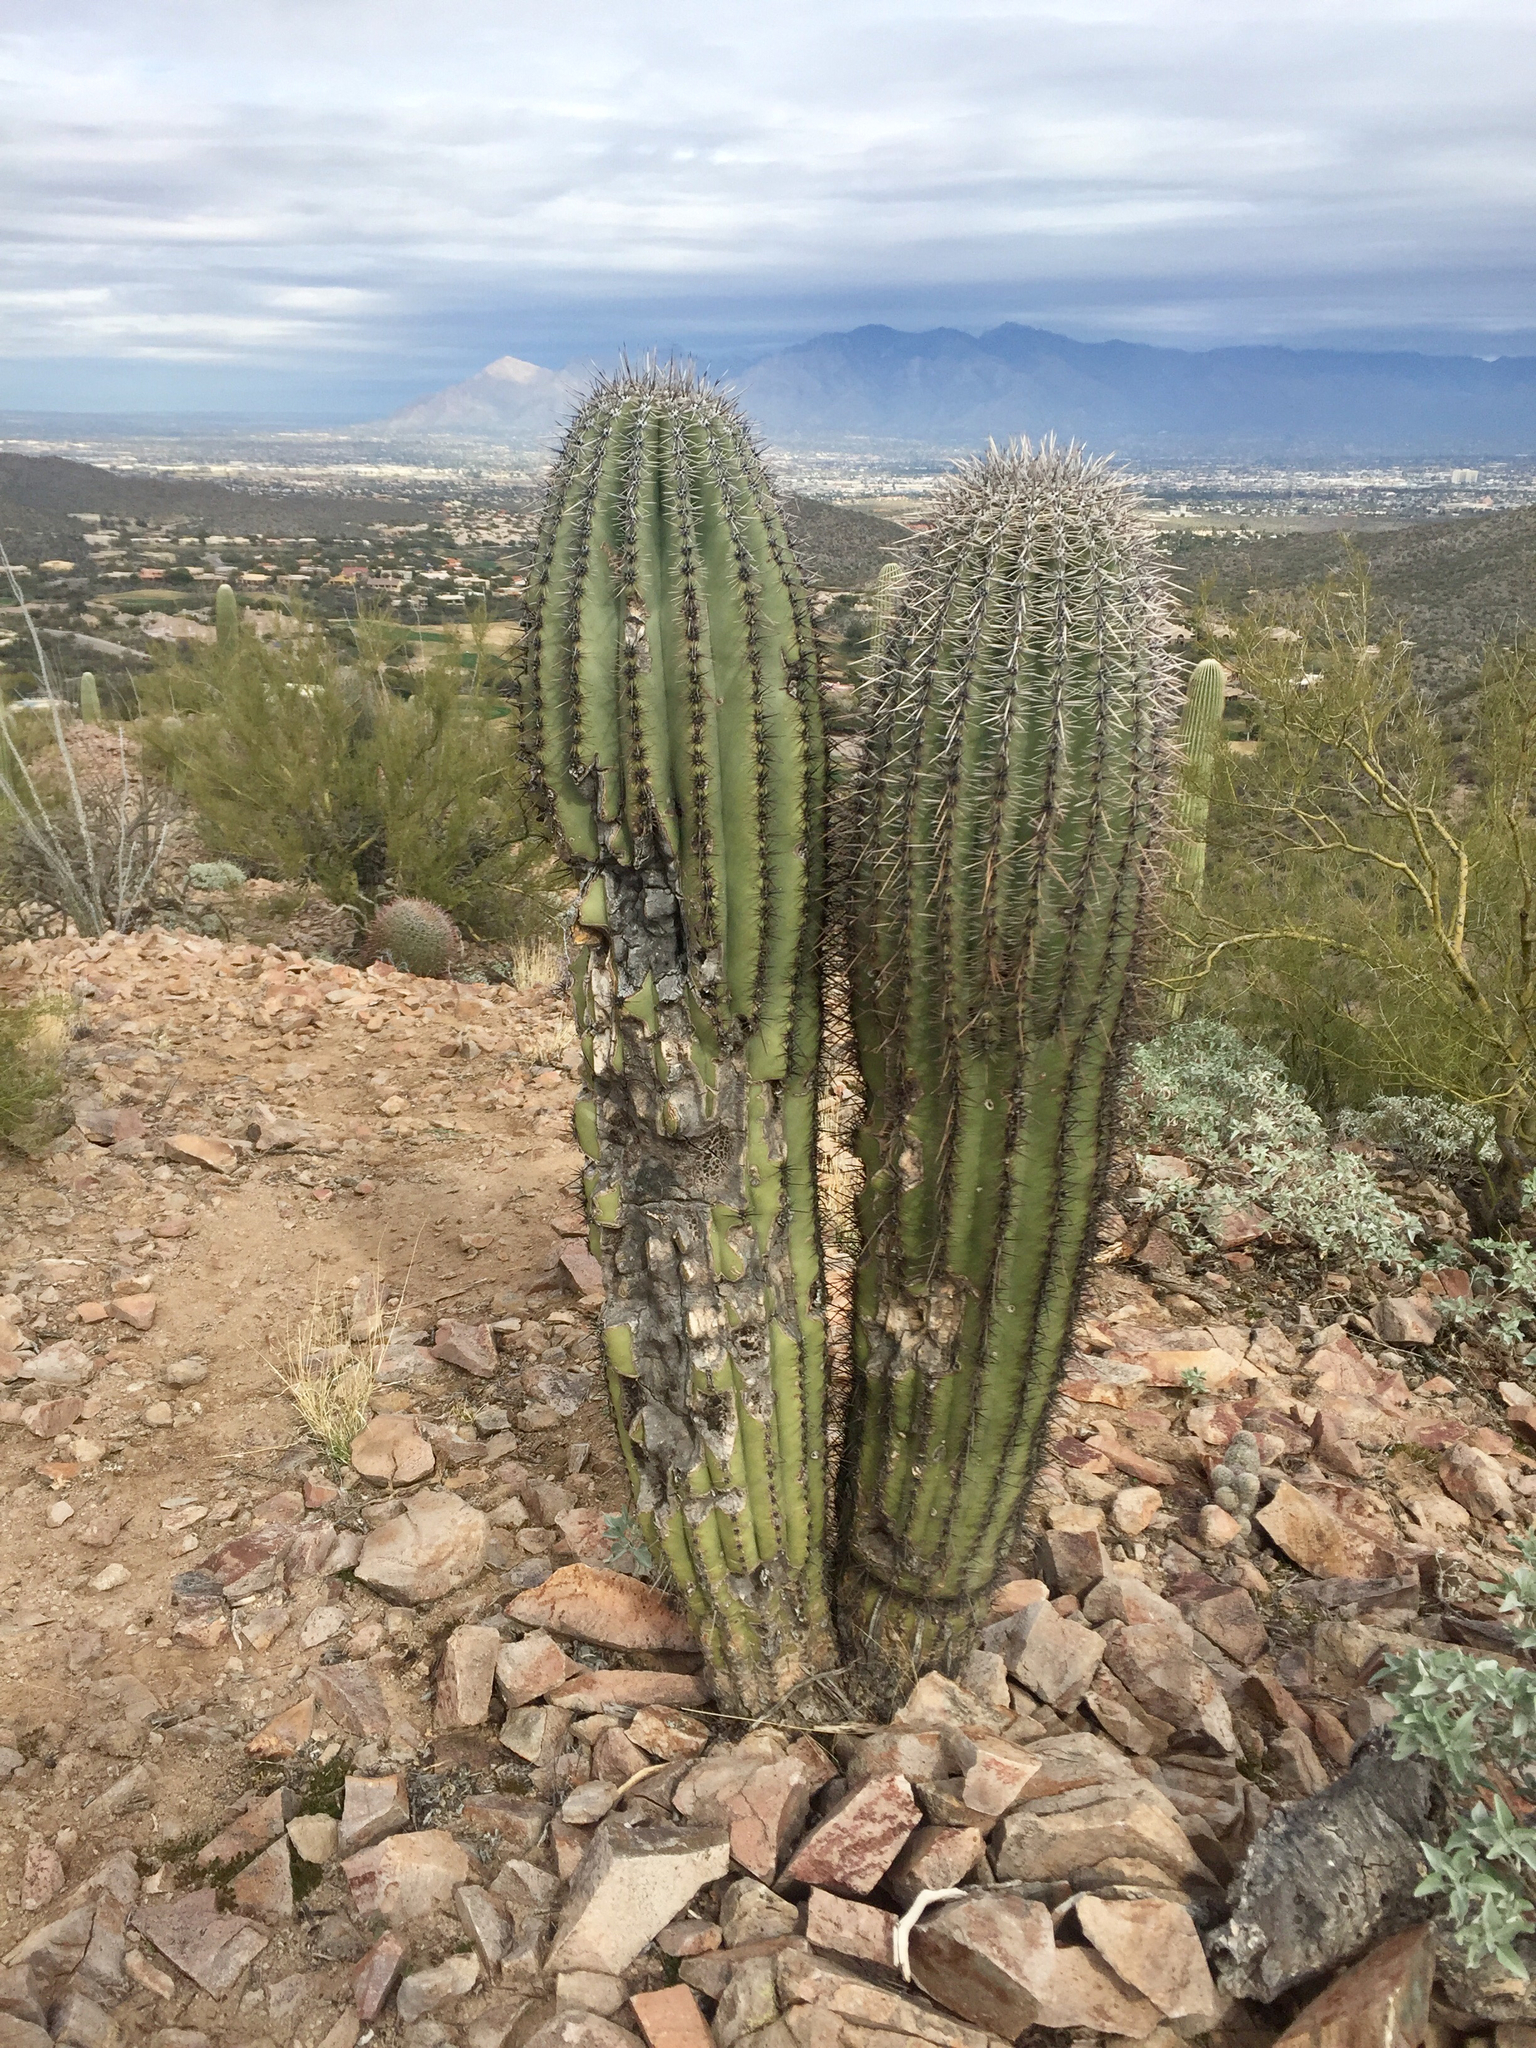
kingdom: Plantae
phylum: Tracheophyta
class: Magnoliopsida
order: Caryophyllales
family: Cactaceae
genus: Carnegiea
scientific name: Carnegiea gigantea
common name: Saguaro
